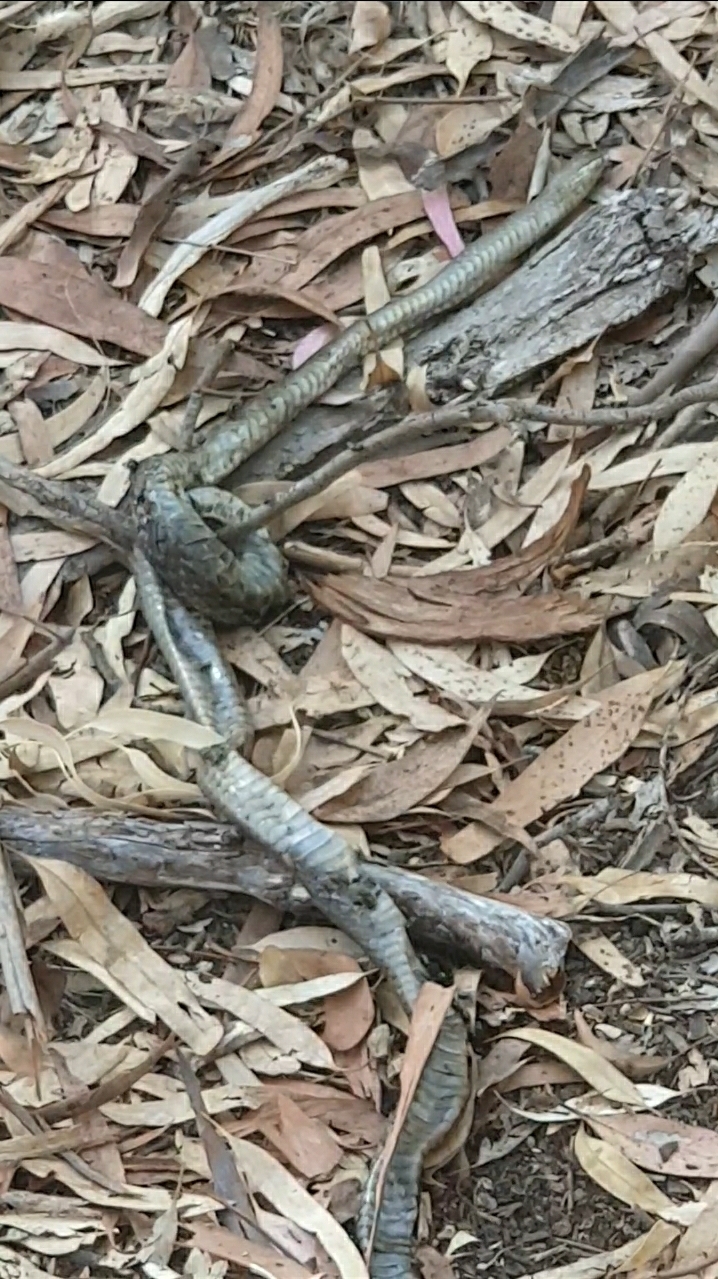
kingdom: Animalia
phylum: Chordata
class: Squamata
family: Elapidae
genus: Pseudonaja
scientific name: Pseudonaja textilis
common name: Eastern brown snake
